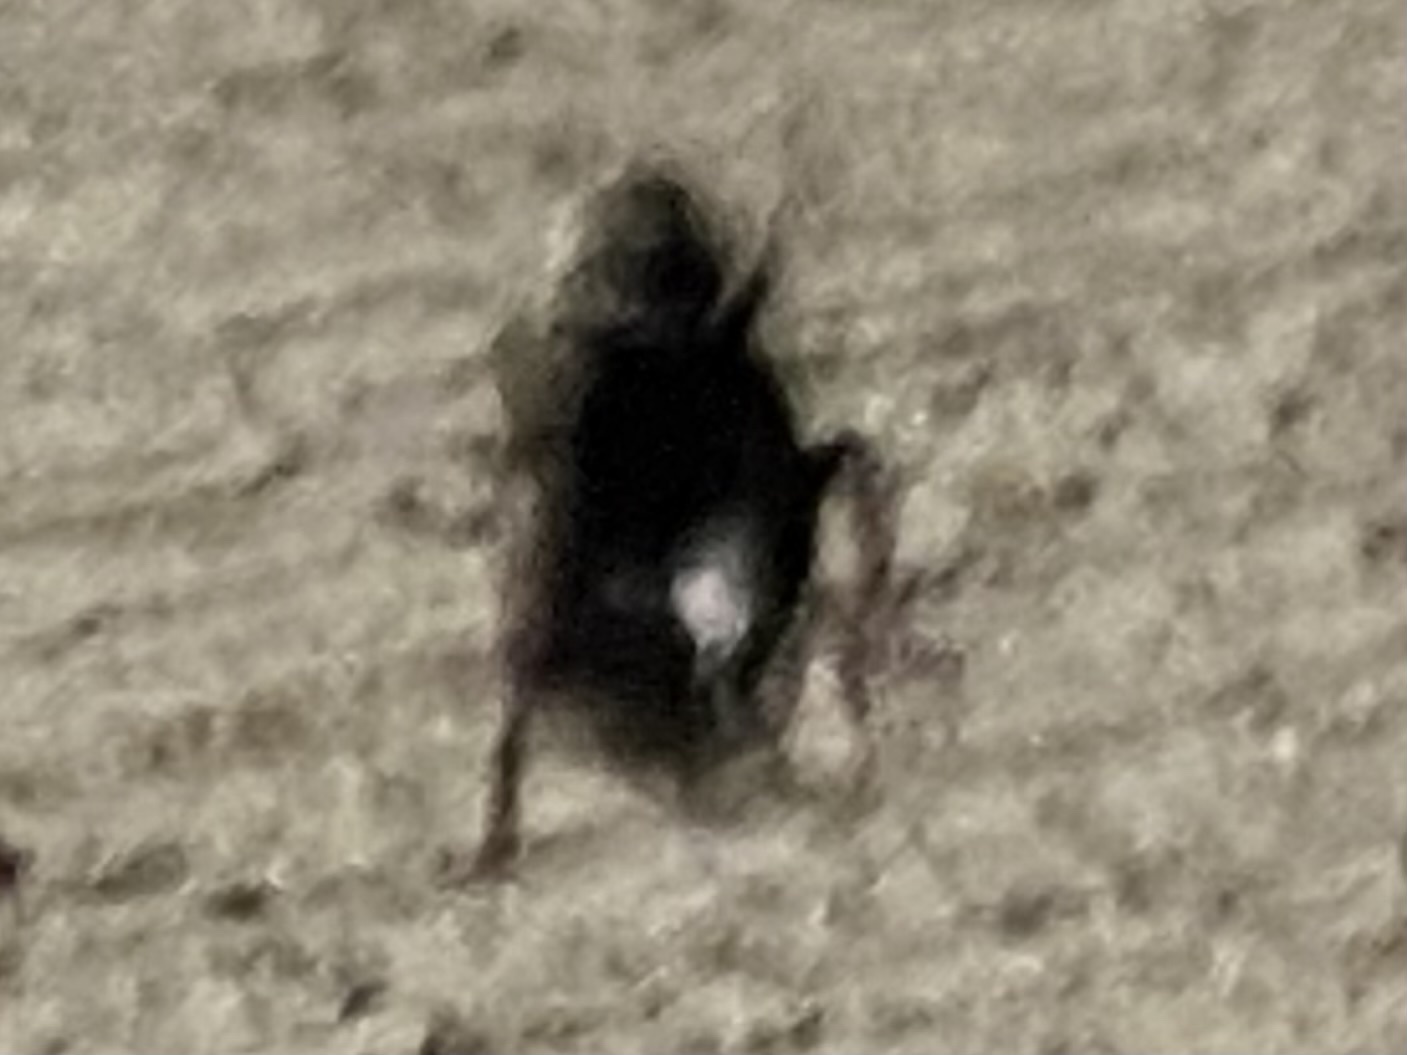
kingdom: Animalia
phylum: Arthropoda
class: Insecta
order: Coleoptera
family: Carabidae
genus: Agonum
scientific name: Agonum
